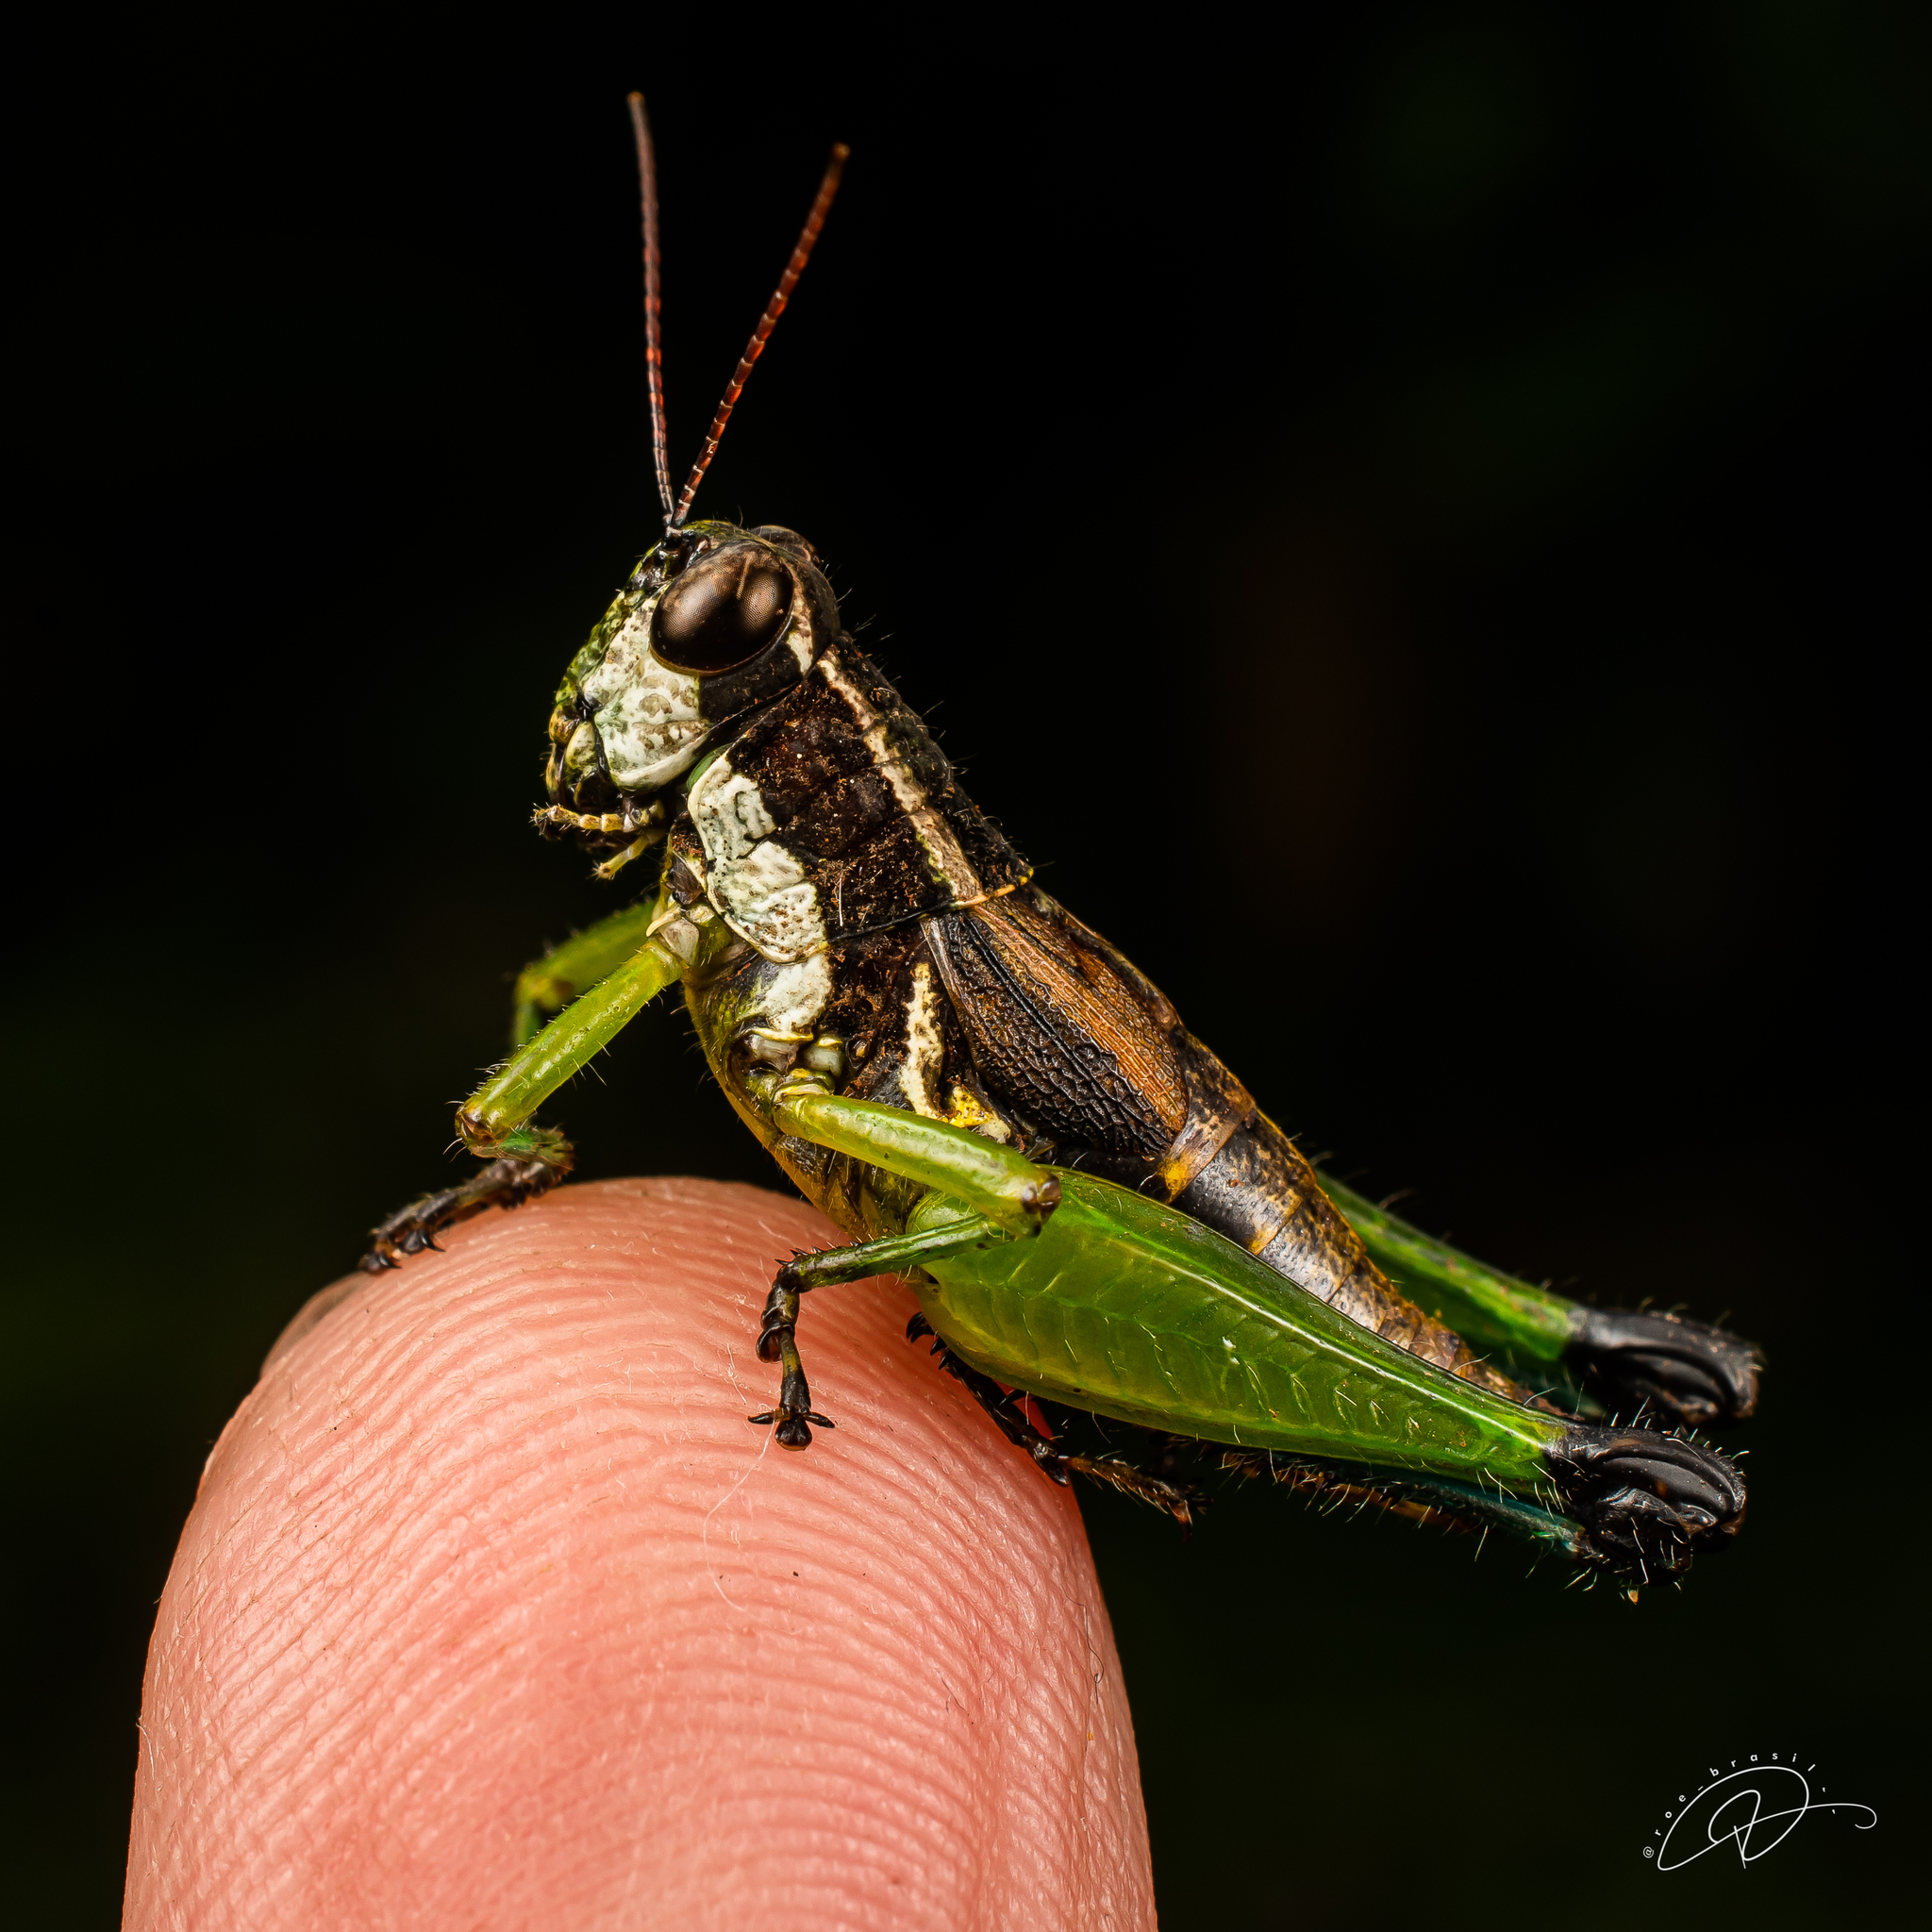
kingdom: Animalia
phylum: Arthropoda
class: Insecta
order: Orthoptera
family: Acrididae
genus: Digamacris
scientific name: Digamacris amoena
